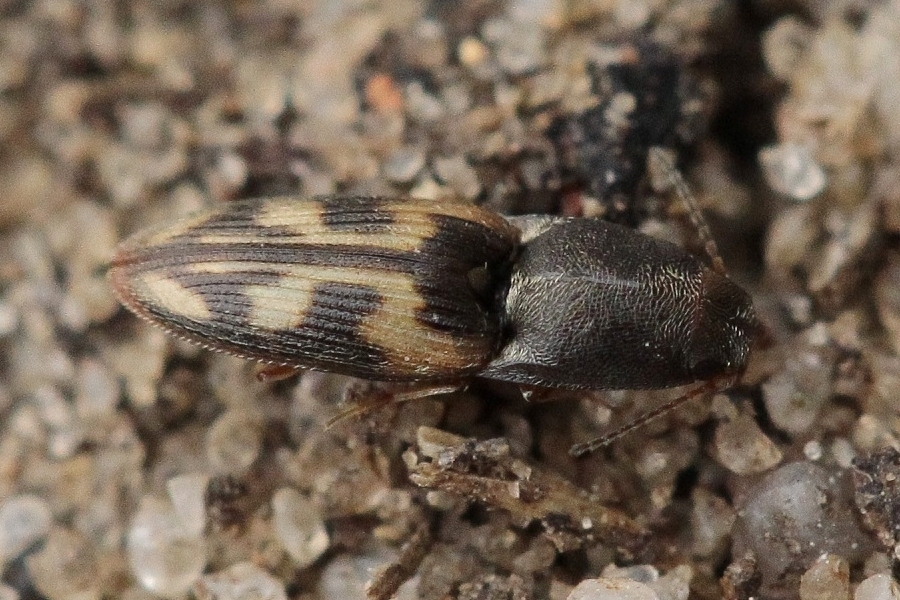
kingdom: Animalia
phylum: Arthropoda
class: Insecta
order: Coleoptera
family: Elateridae
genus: Negastrius
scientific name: Negastrius pulchellus
